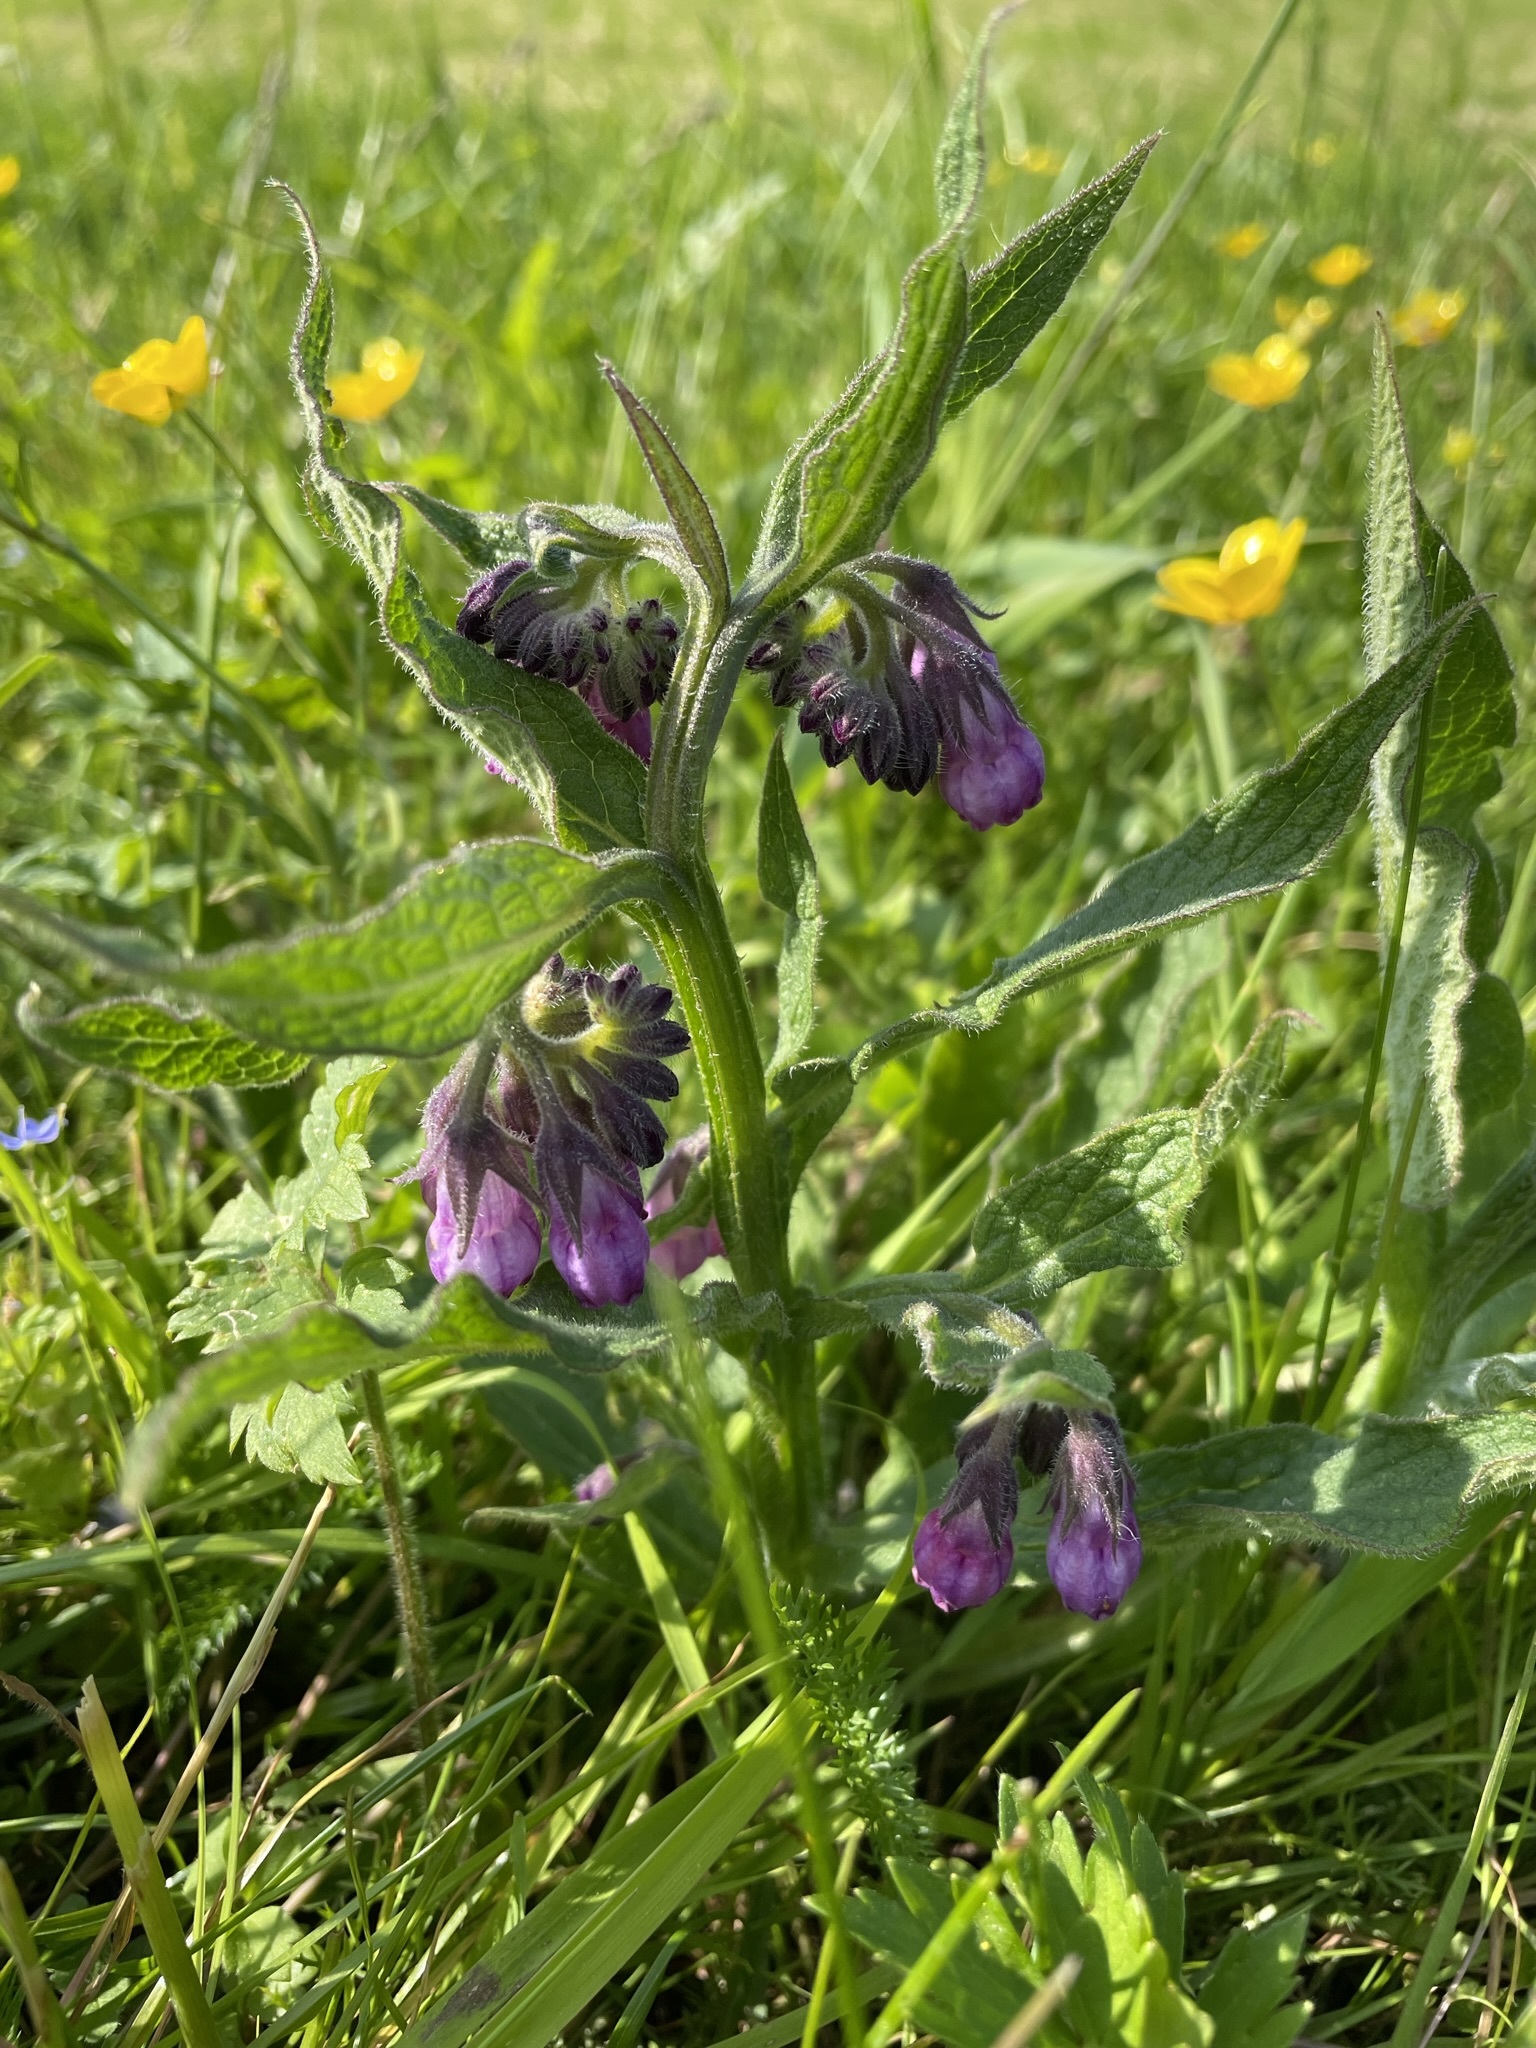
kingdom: Plantae
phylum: Tracheophyta
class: Magnoliopsida
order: Boraginales
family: Boraginaceae
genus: Symphytum
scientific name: Symphytum officinale
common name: Common comfrey
